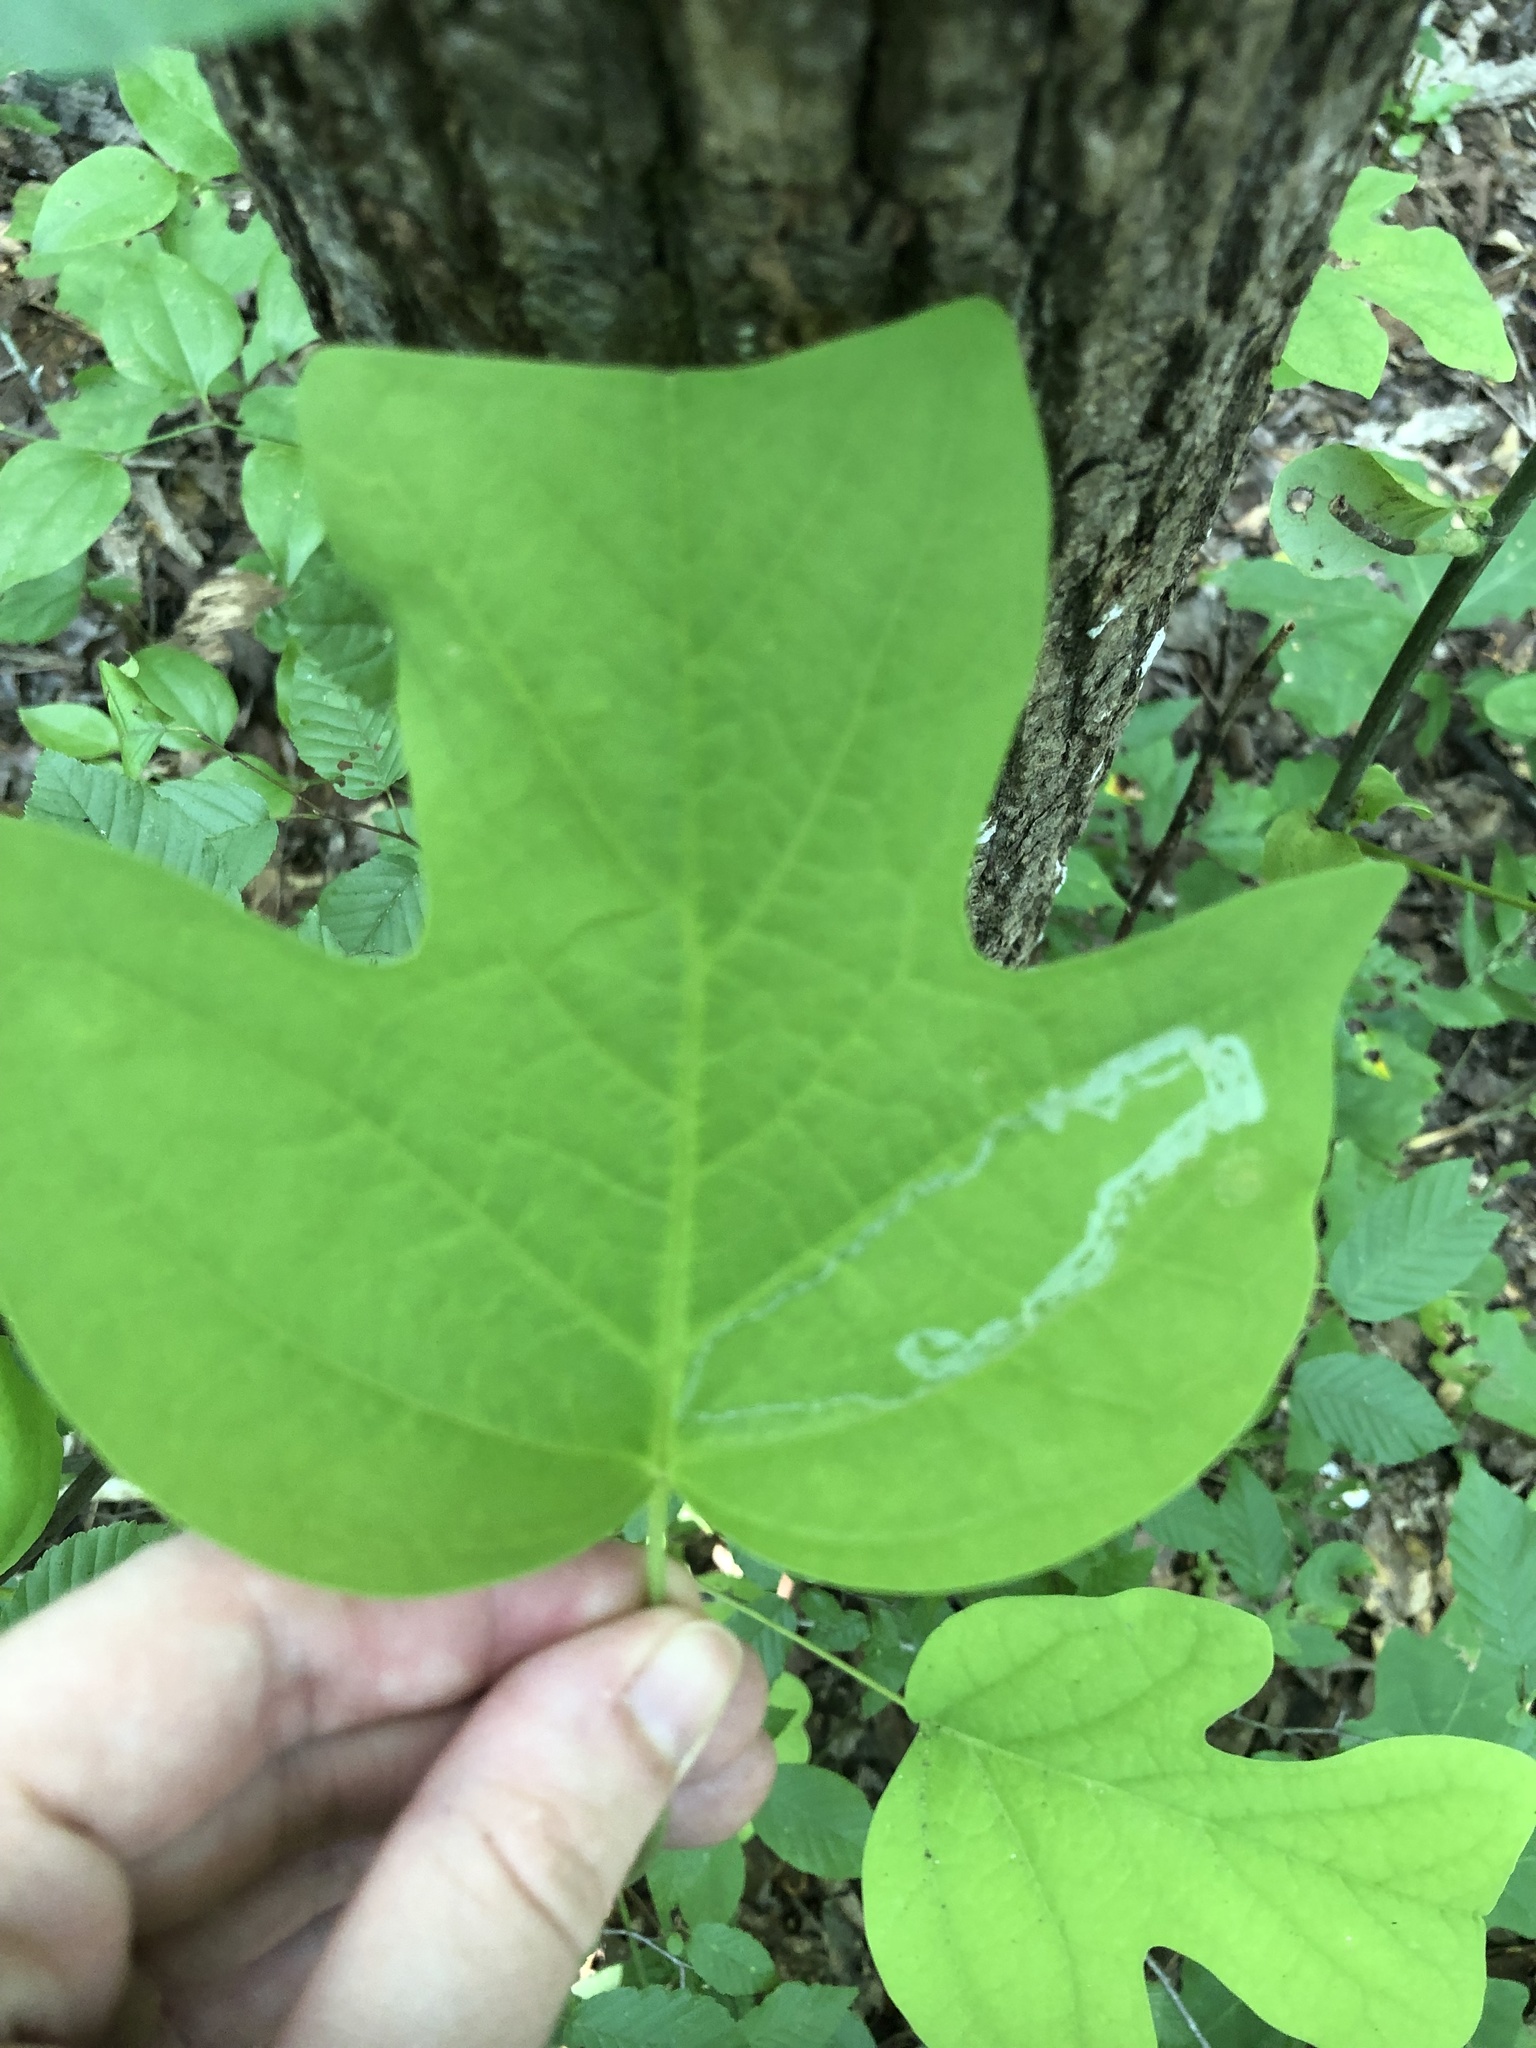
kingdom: Animalia
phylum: Arthropoda
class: Insecta
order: Lepidoptera
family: Gracillariidae
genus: Phyllocnistis
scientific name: Phyllocnistis liriodendronella
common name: Tulip tree leaf miner
